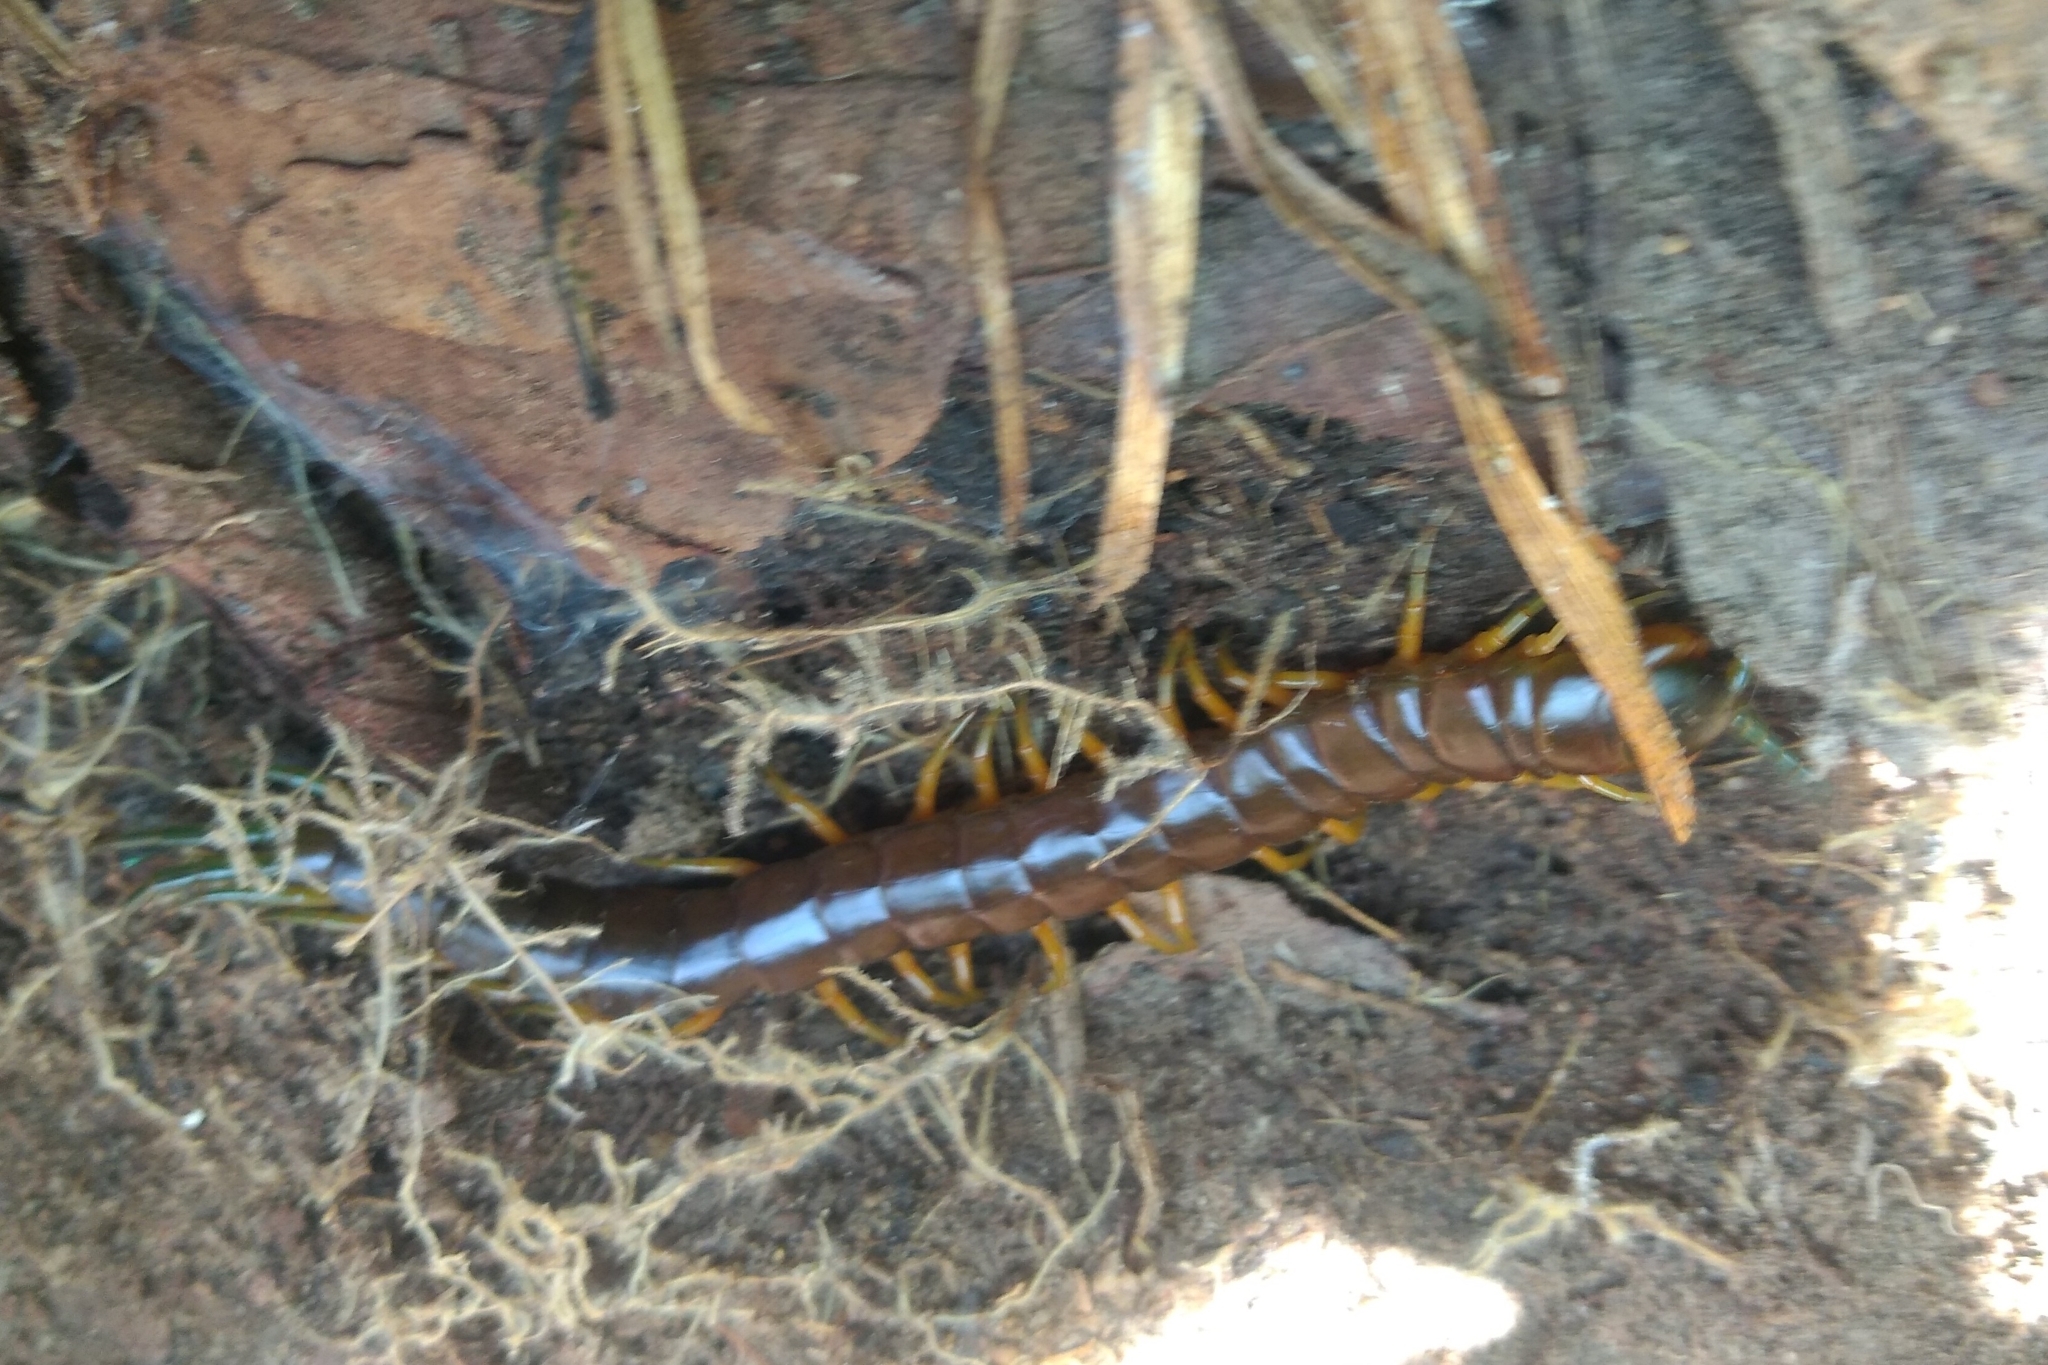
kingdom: Animalia
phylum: Arthropoda
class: Chilopoda
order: Scolopendromorpha
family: Scolopendridae
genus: Scolopendra
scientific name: Scolopendra viridis
